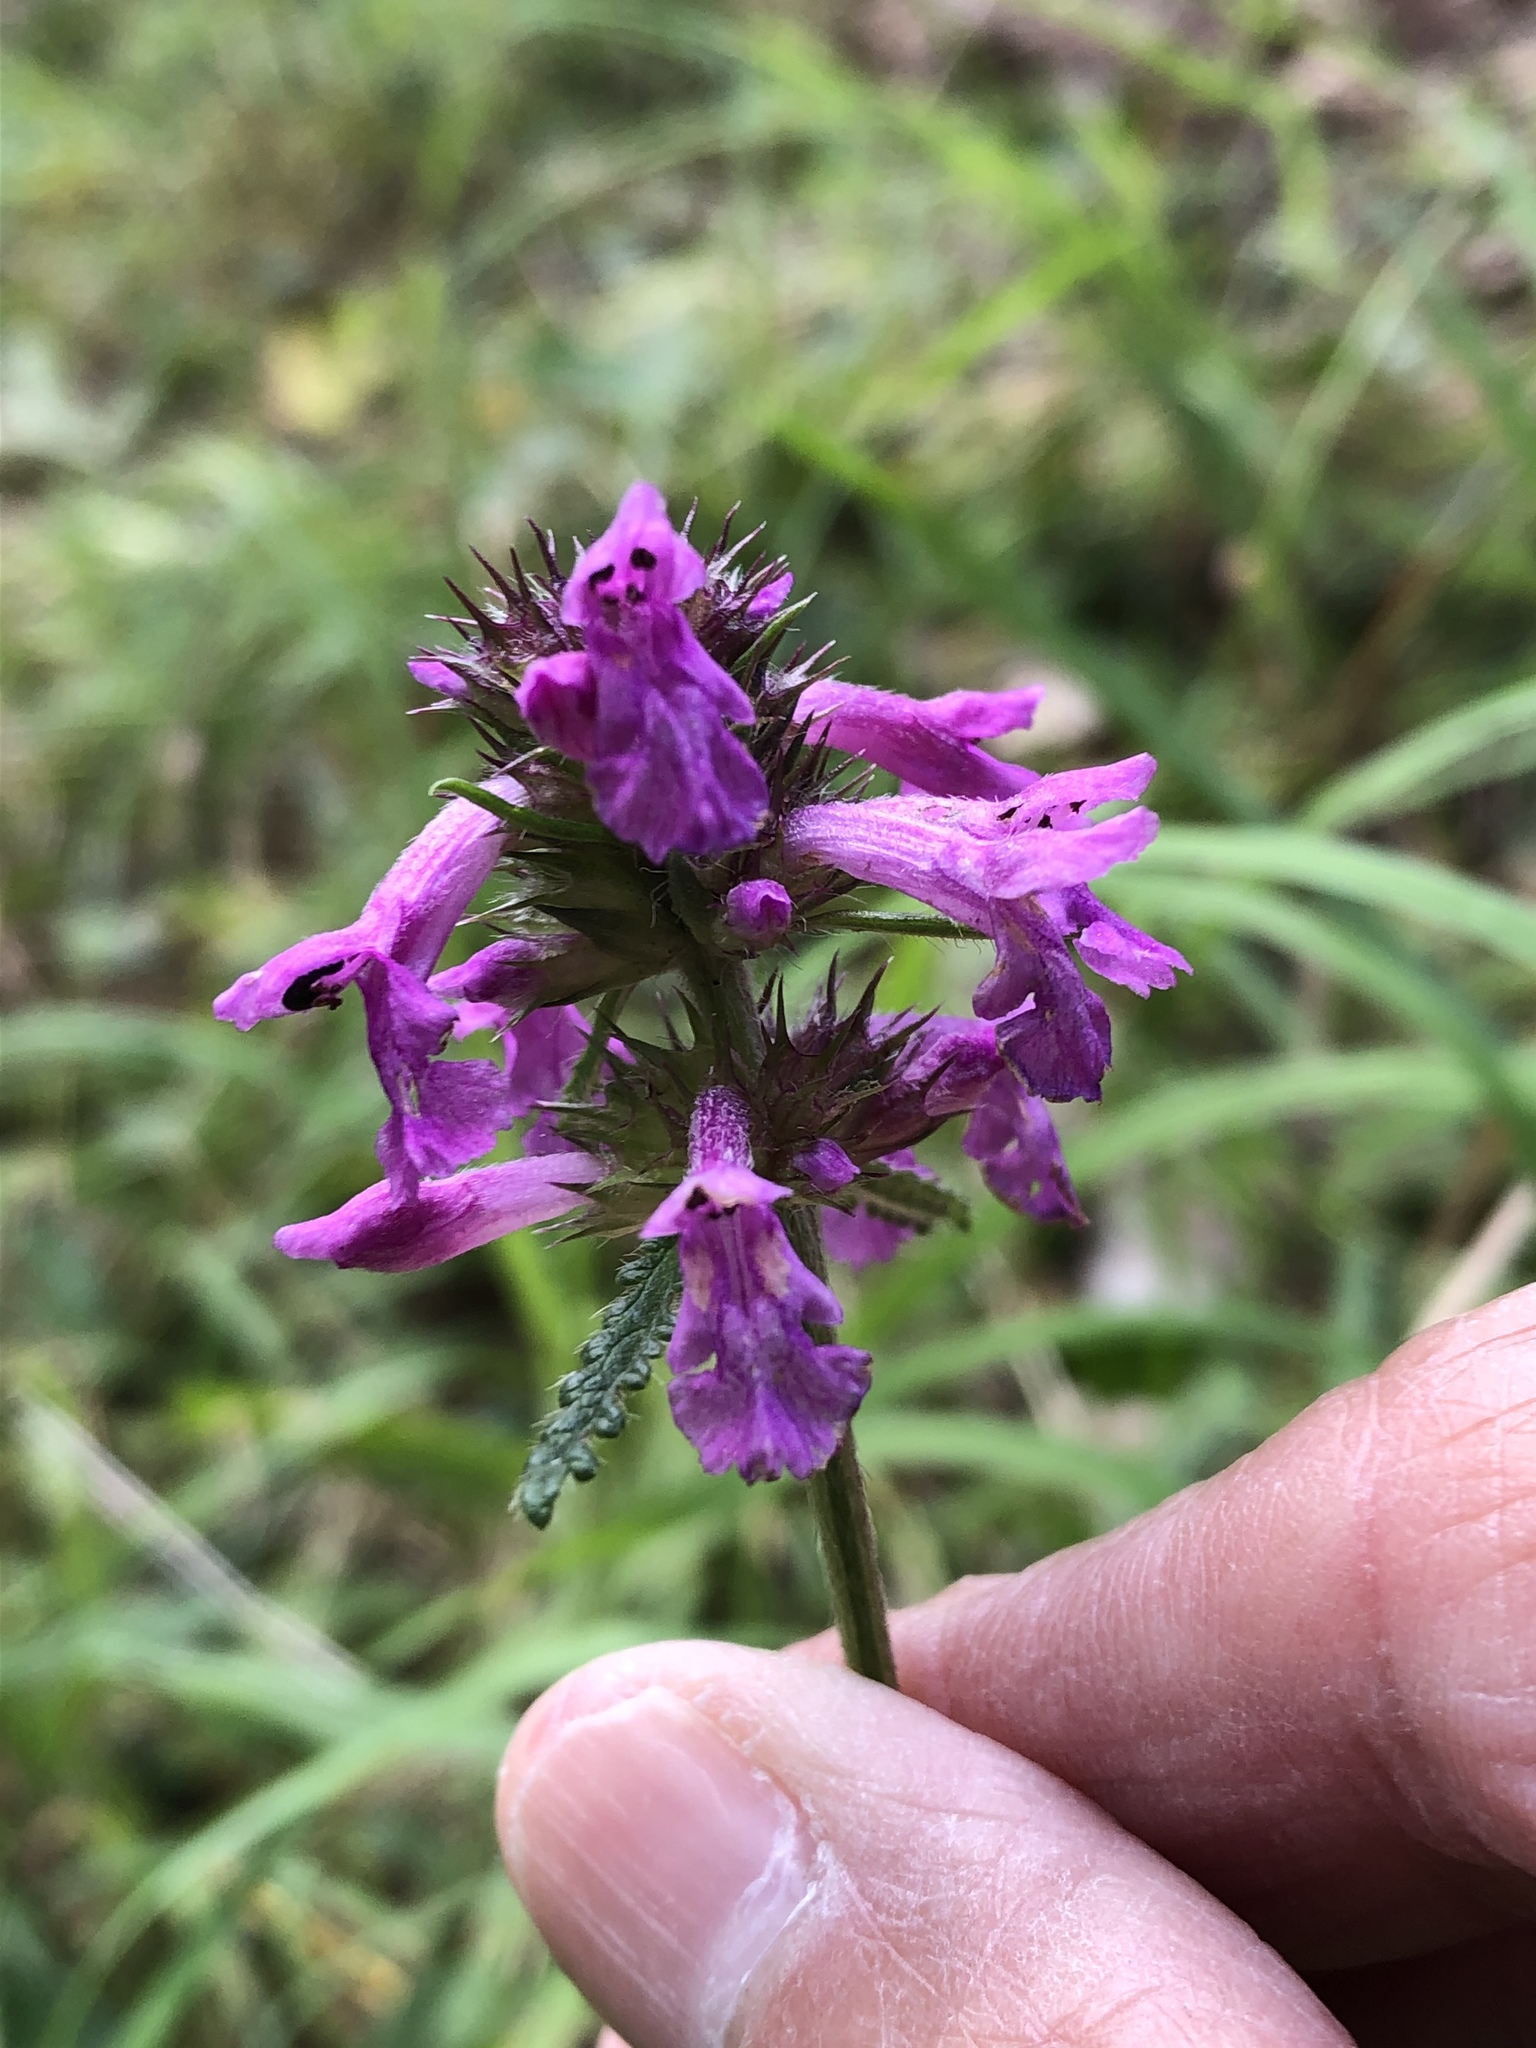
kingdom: Plantae
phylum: Tracheophyta
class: Magnoliopsida
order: Lamiales
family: Lamiaceae
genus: Betonica
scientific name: Betonica officinalis
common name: Bishop's-wort
